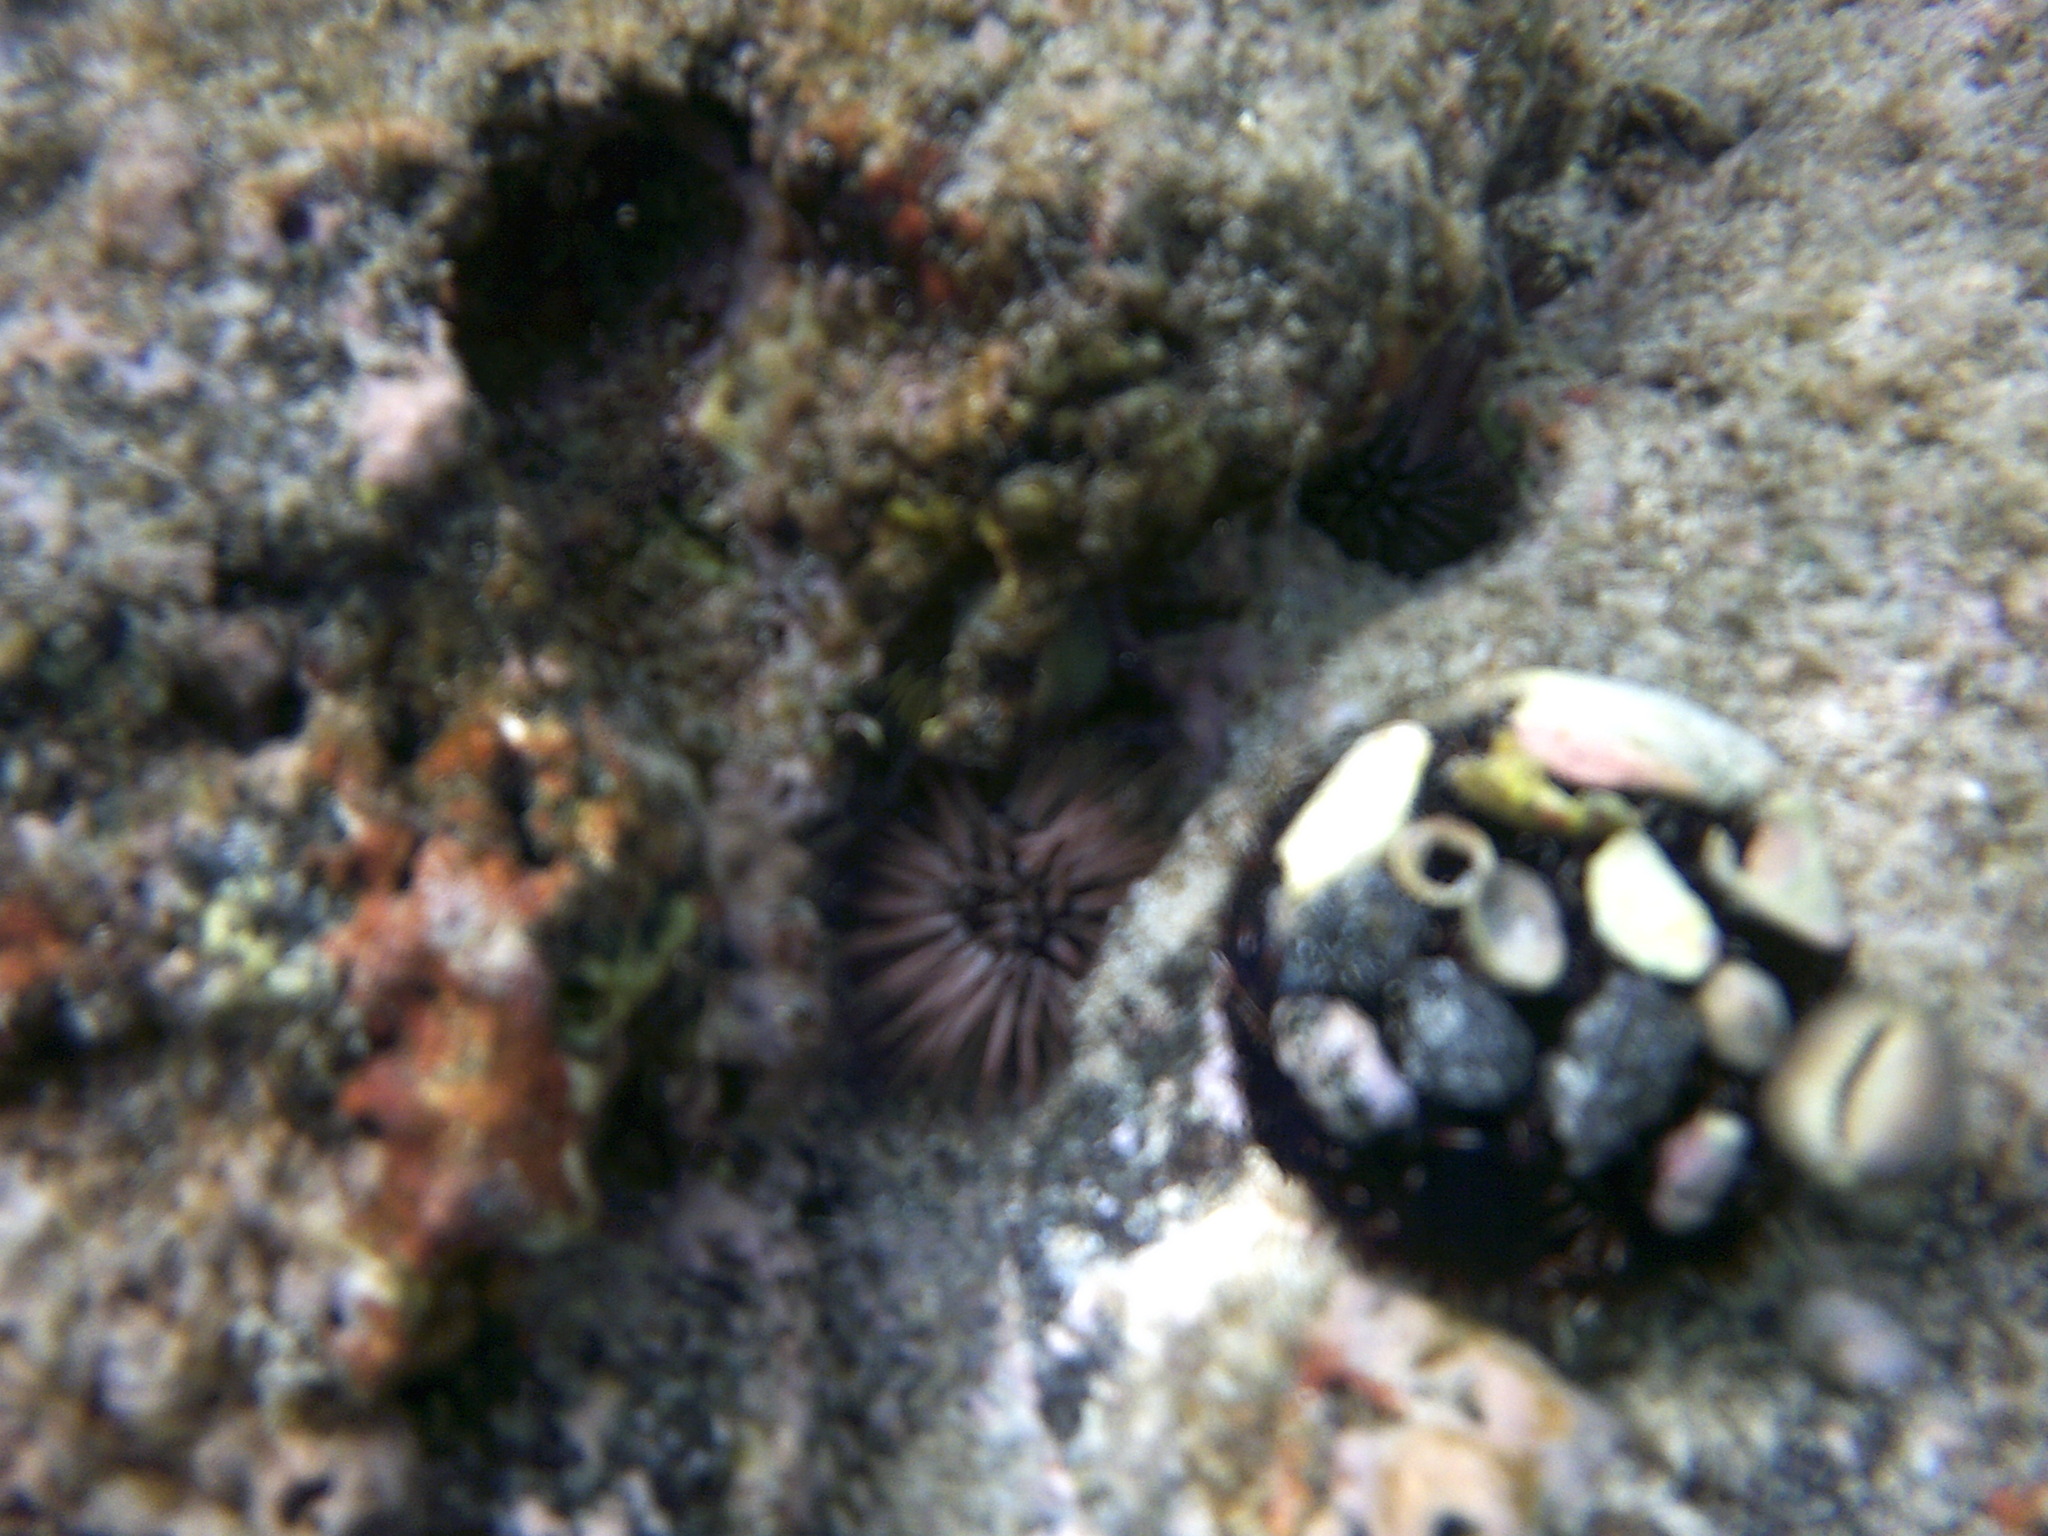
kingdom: Animalia
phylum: Echinodermata
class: Echinoidea
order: Camarodonta
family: Toxopneustidae
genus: Tripneustes
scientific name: Tripneustes gratilla
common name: Bischofsmützenseeigel
